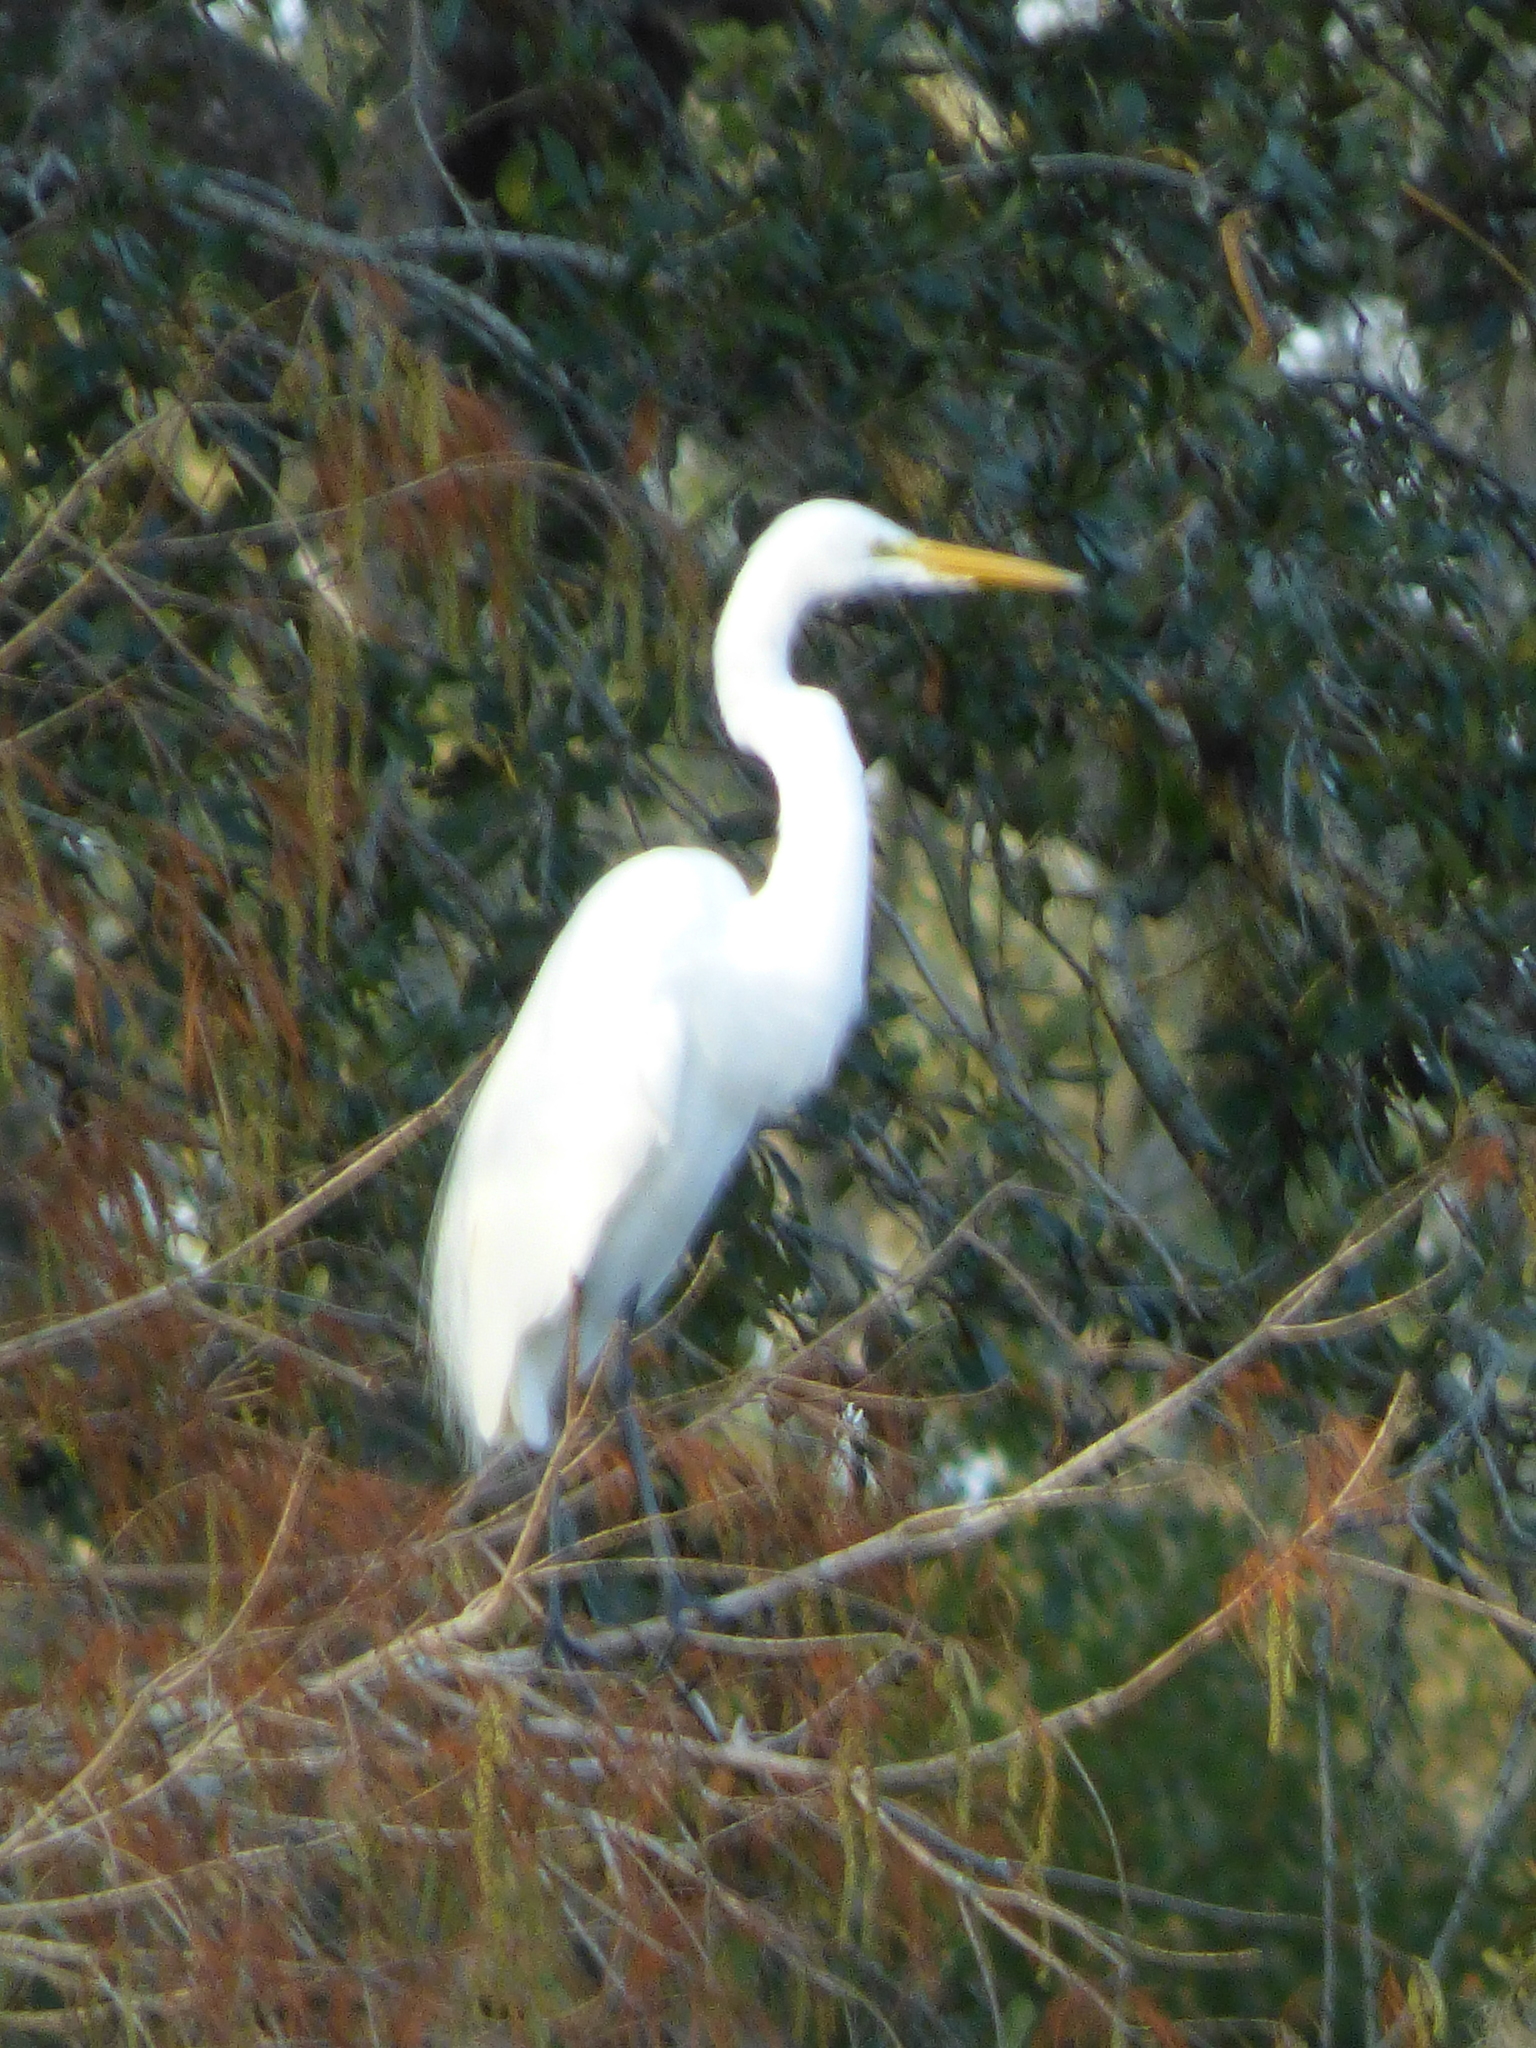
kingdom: Animalia
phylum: Chordata
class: Aves
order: Pelecaniformes
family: Ardeidae
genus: Ardea
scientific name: Ardea alba
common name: Great egret
